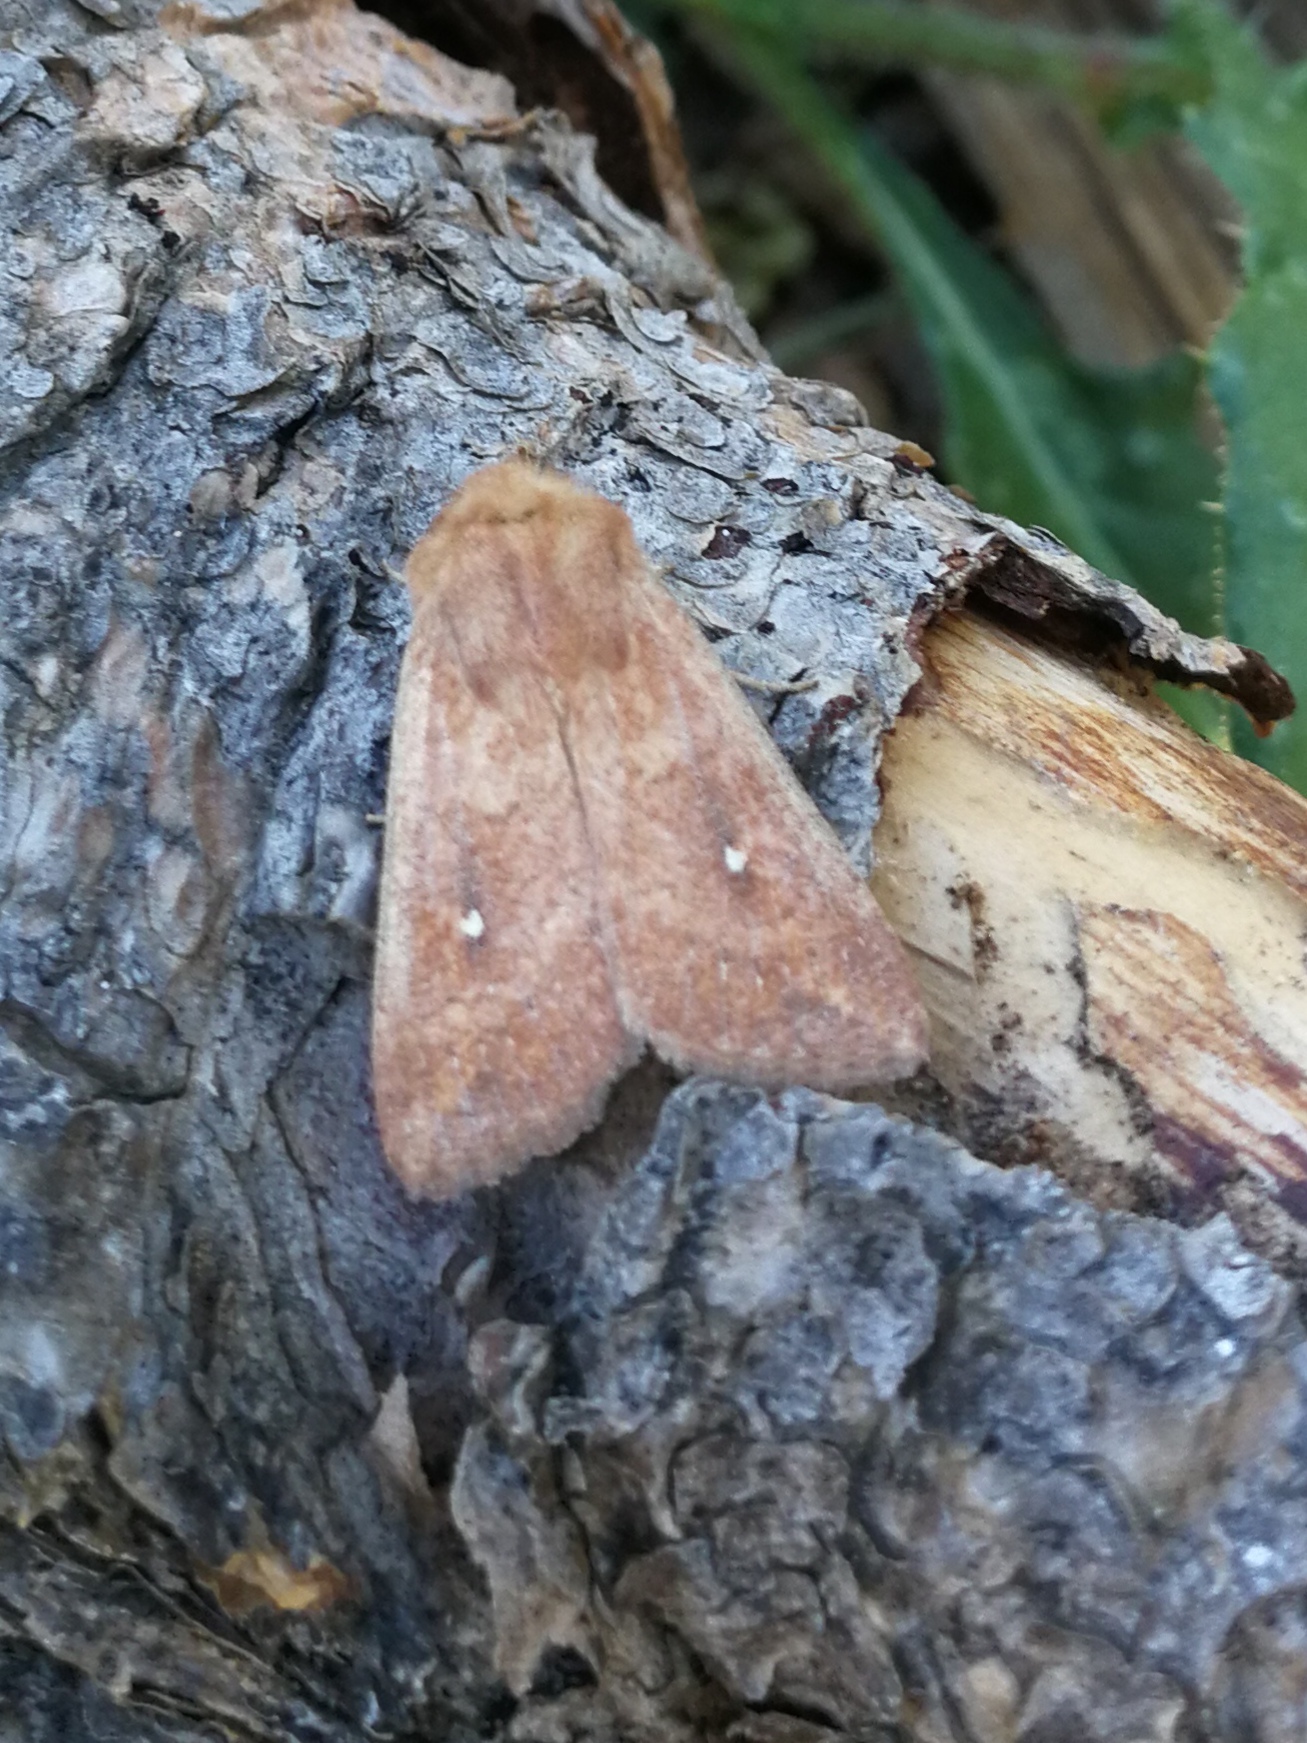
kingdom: Animalia
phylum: Arthropoda
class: Insecta
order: Lepidoptera
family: Noctuidae
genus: Mythimna
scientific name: Mythimna albipuncta
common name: White-point
